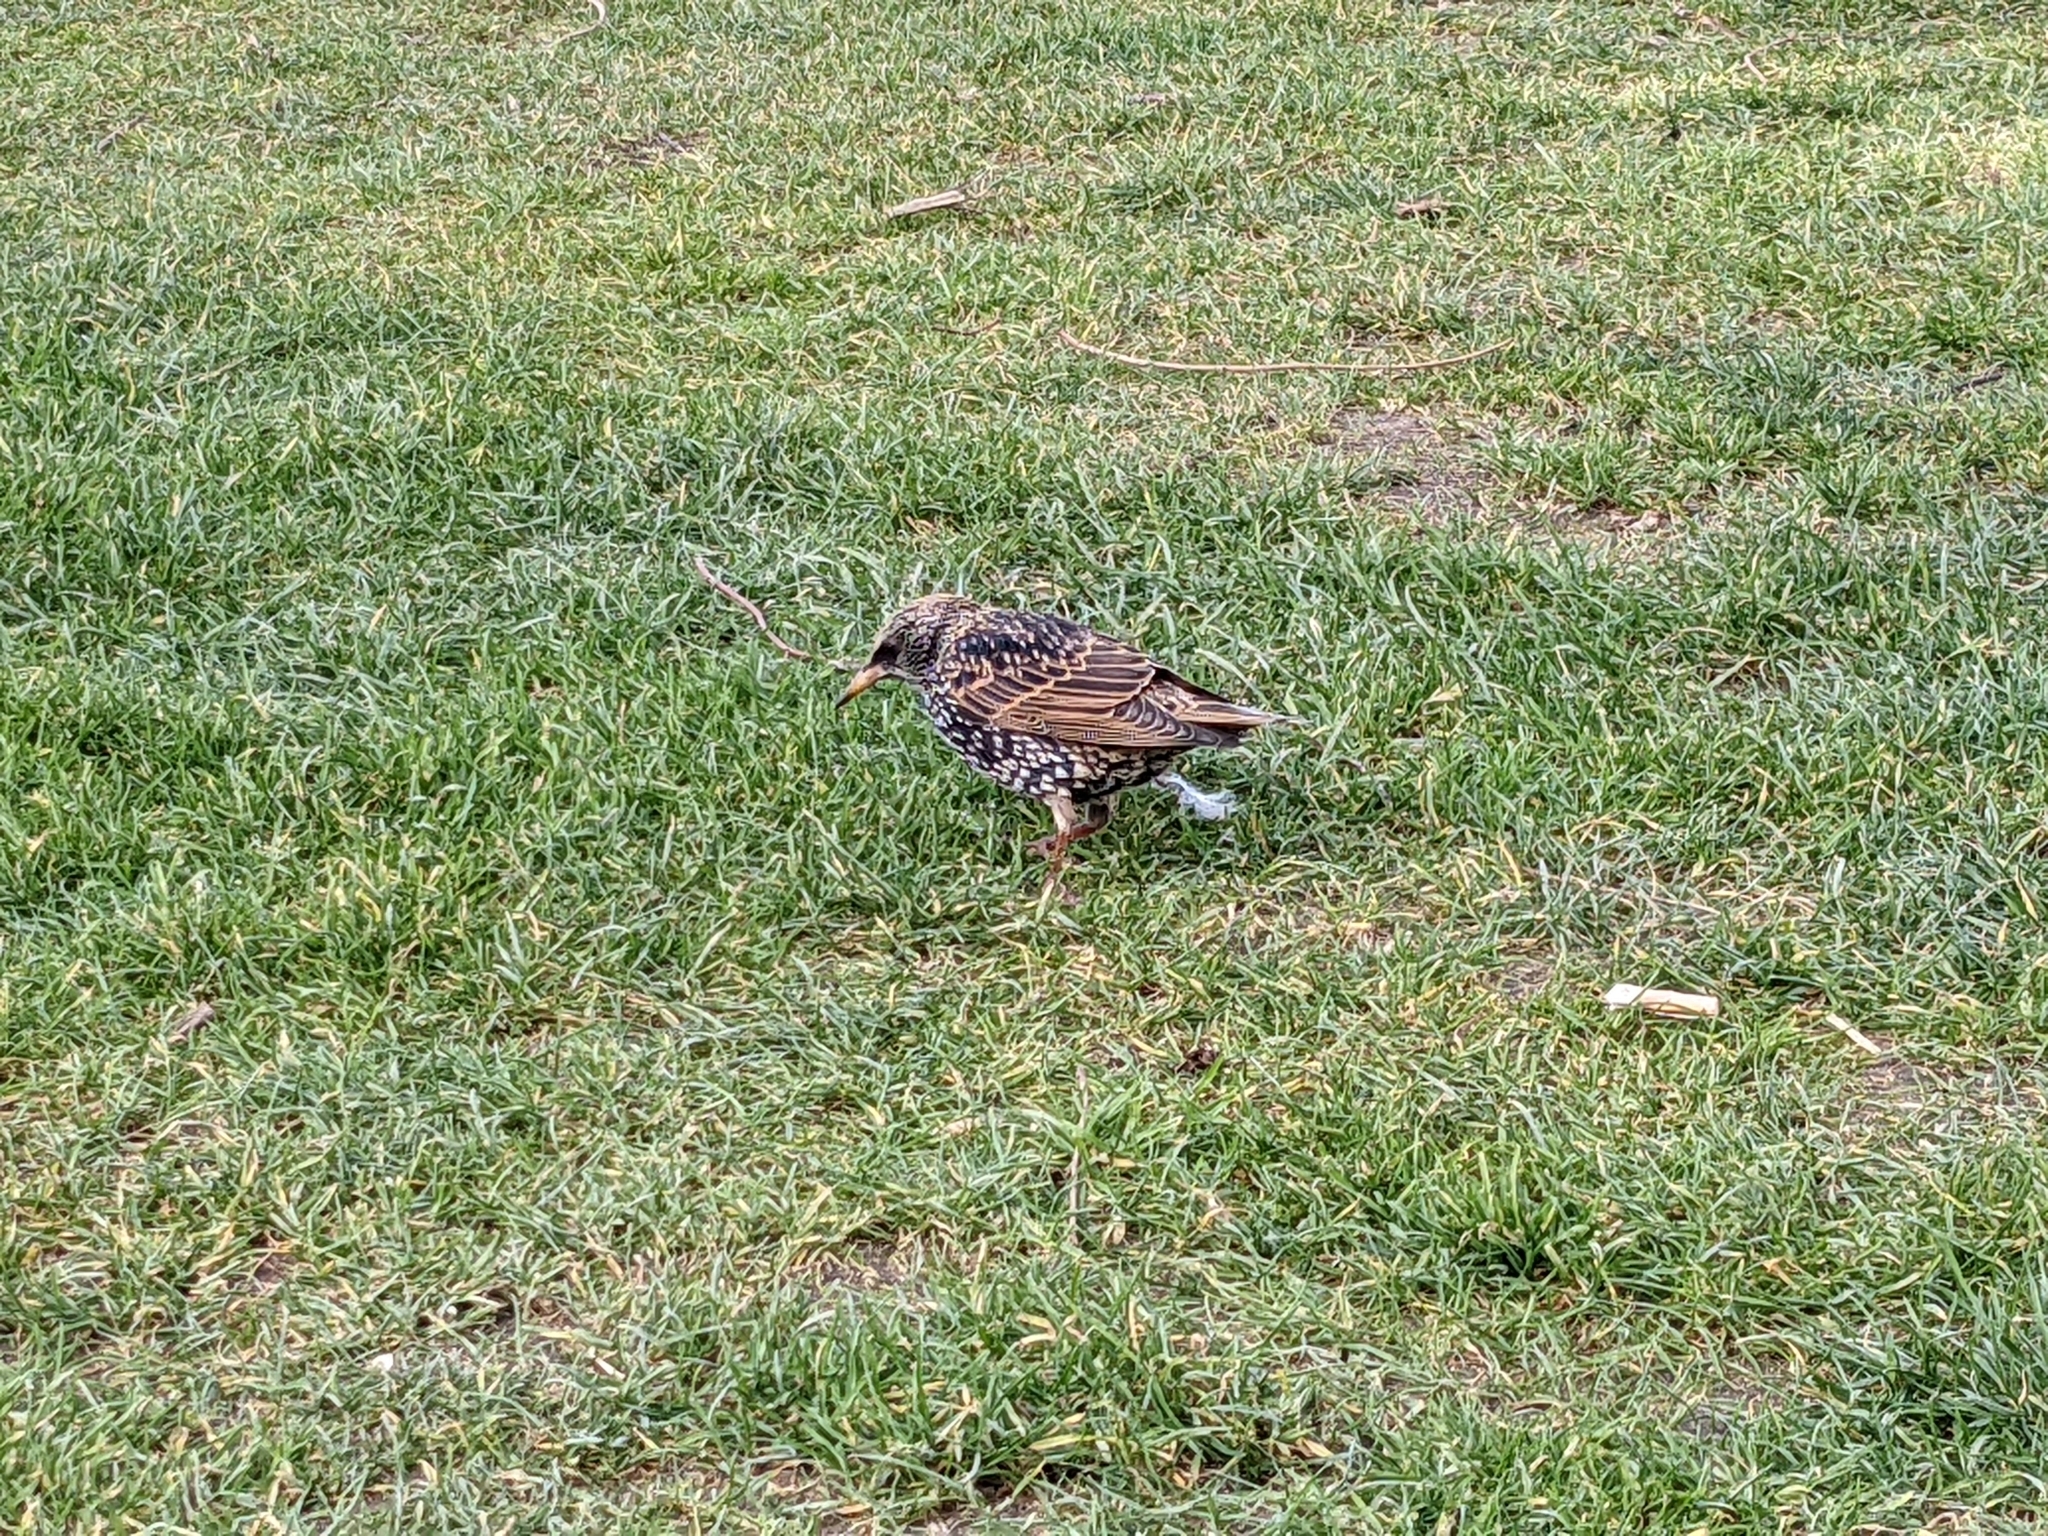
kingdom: Animalia
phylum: Chordata
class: Aves
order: Passeriformes
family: Sturnidae
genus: Sturnus
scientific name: Sturnus vulgaris
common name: Common starling
